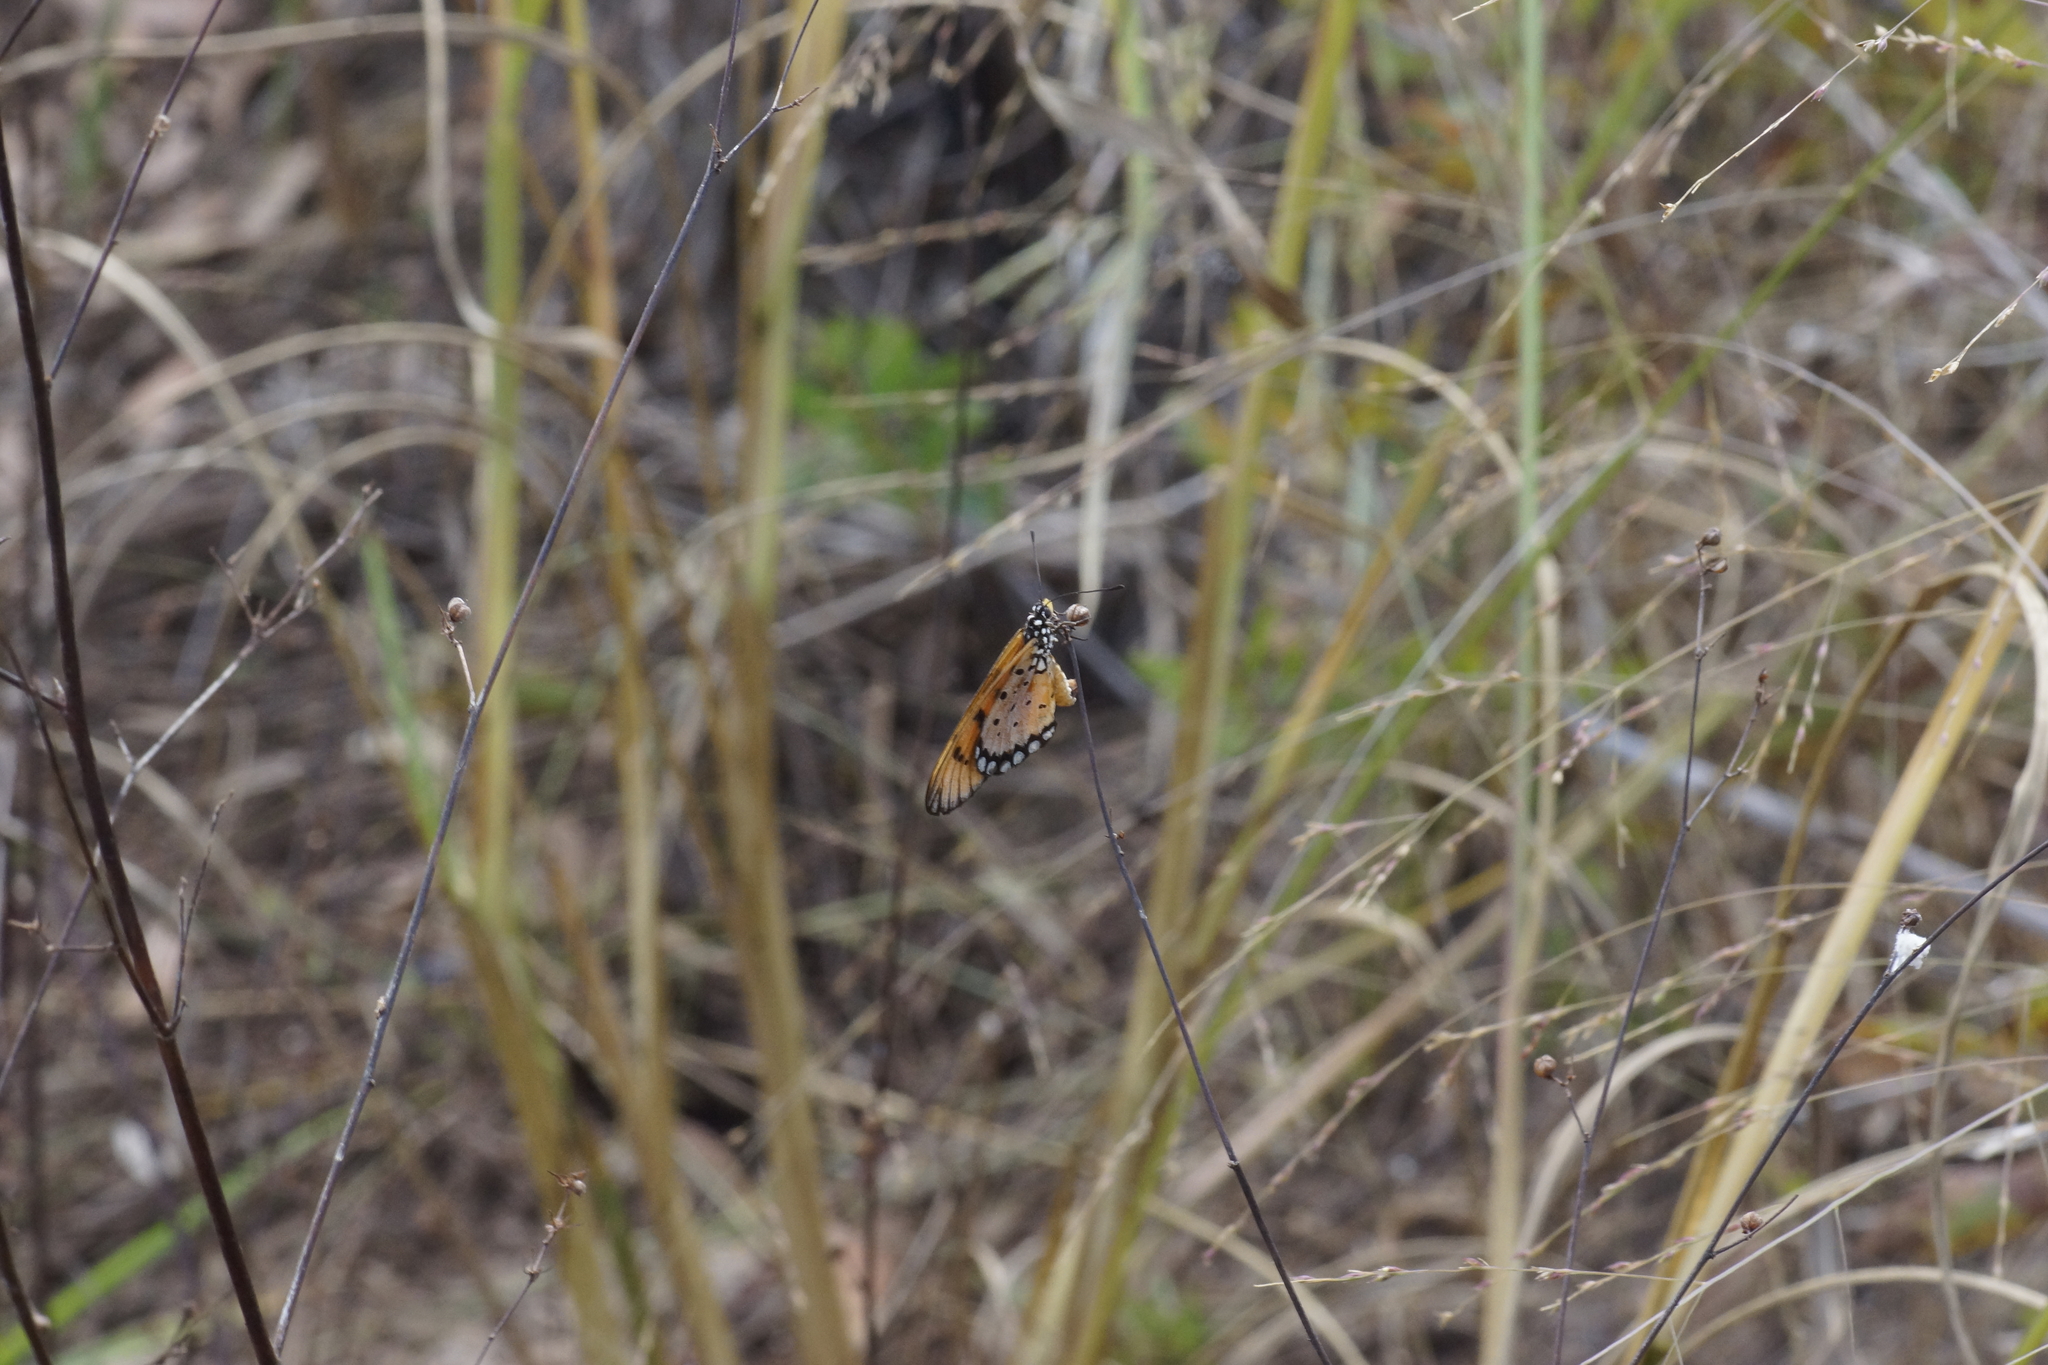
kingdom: Animalia
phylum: Arthropoda
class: Insecta
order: Lepidoptera
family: Nymphalidae
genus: Acraea
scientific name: Acraea terpsicore
